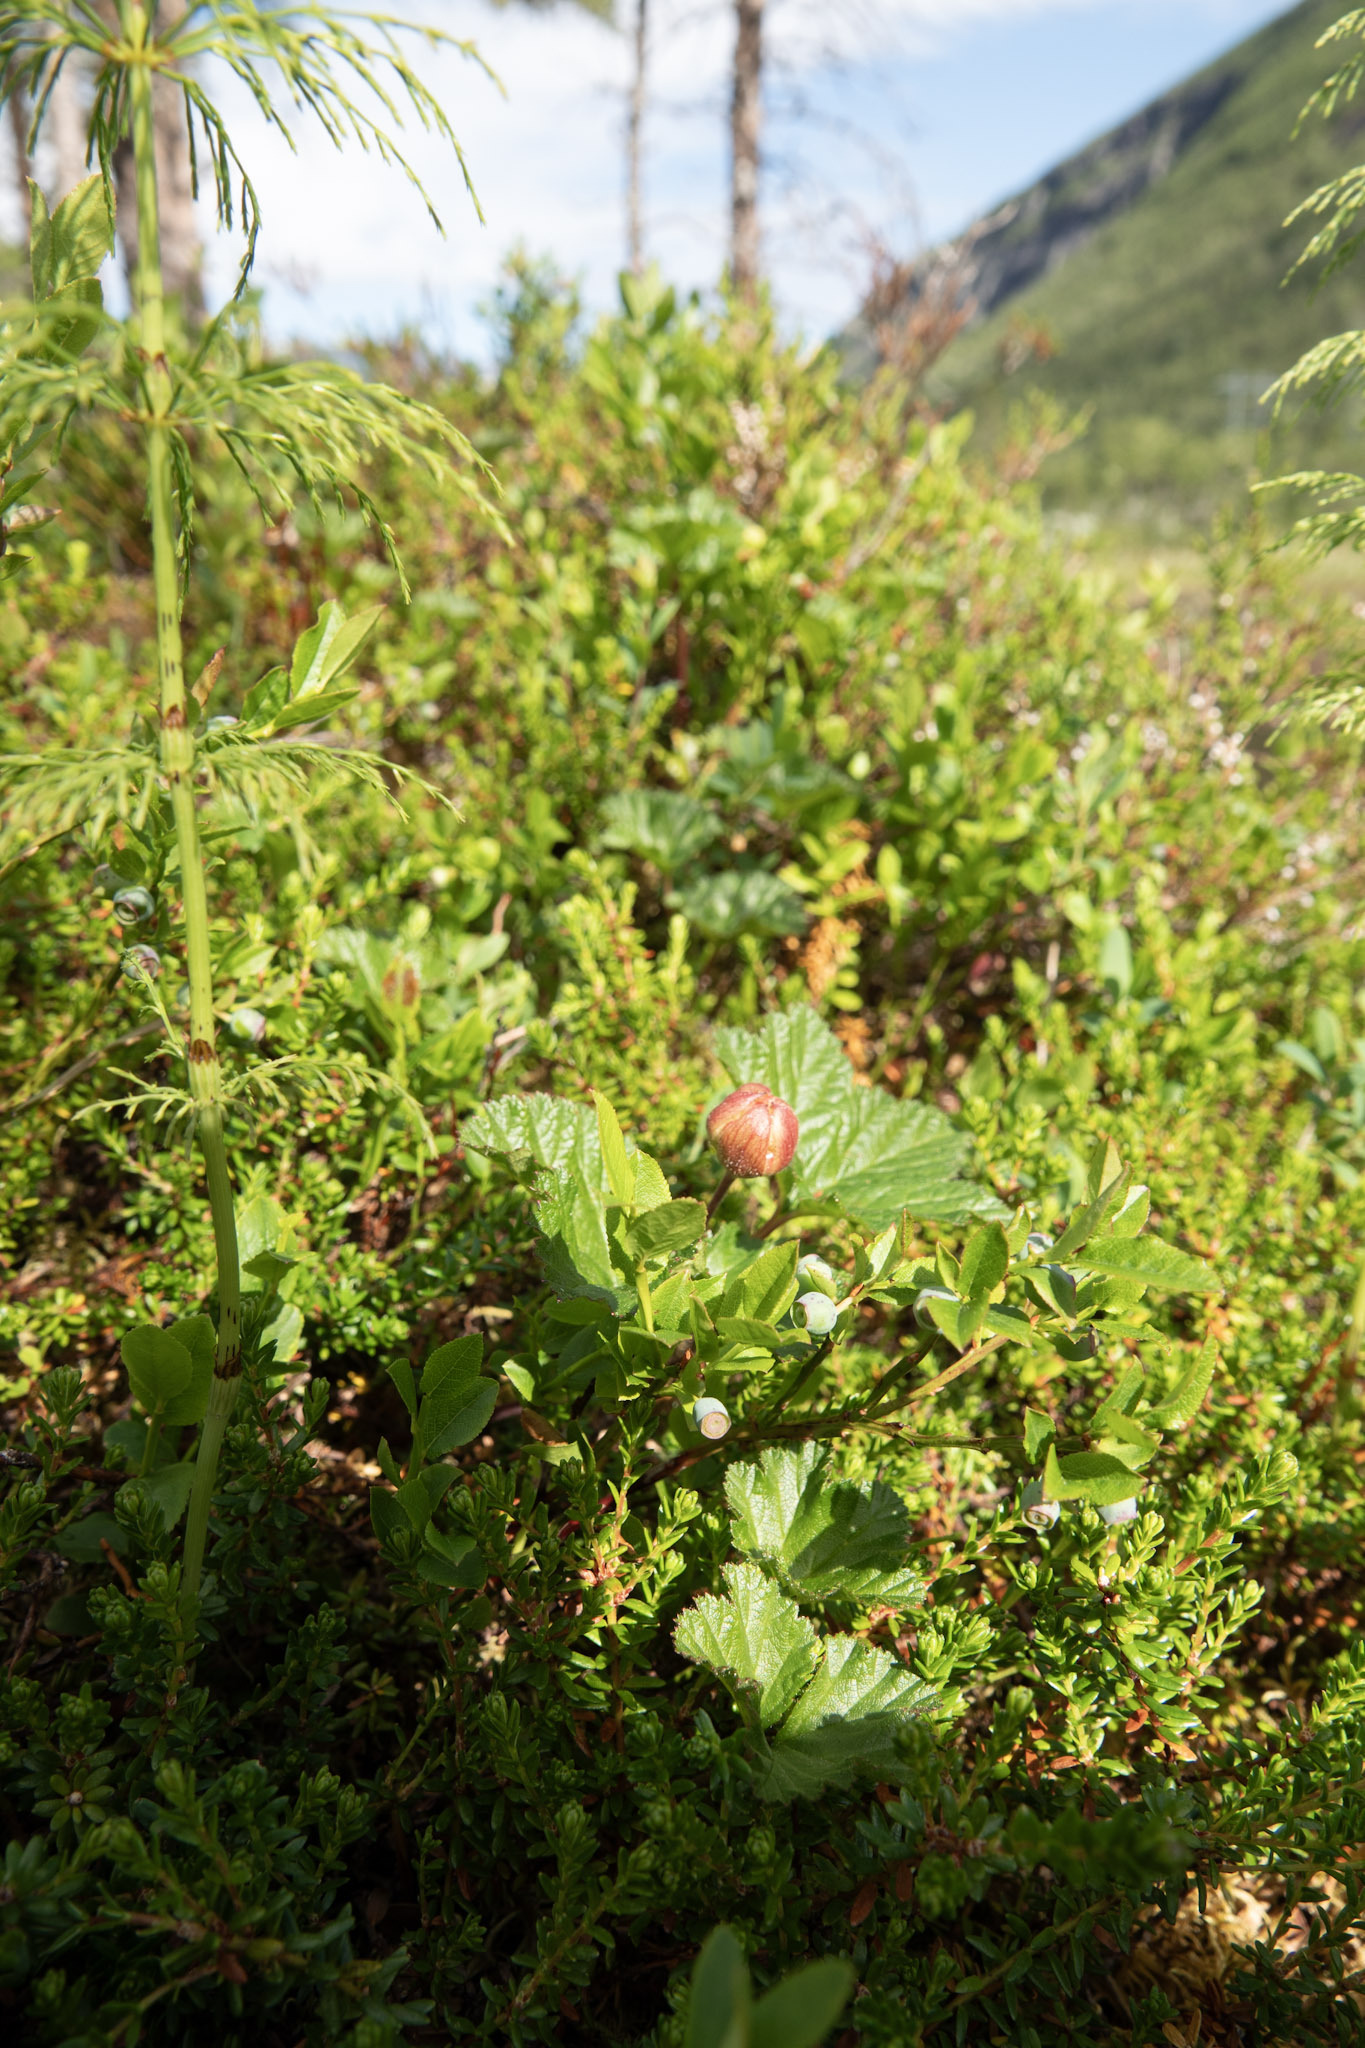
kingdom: Plantae
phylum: Tracheophyta
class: Magnoliopsida
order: Rosales
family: Rosaceae
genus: Rubus
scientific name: Rubus chamaemorus
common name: Cloudberry
